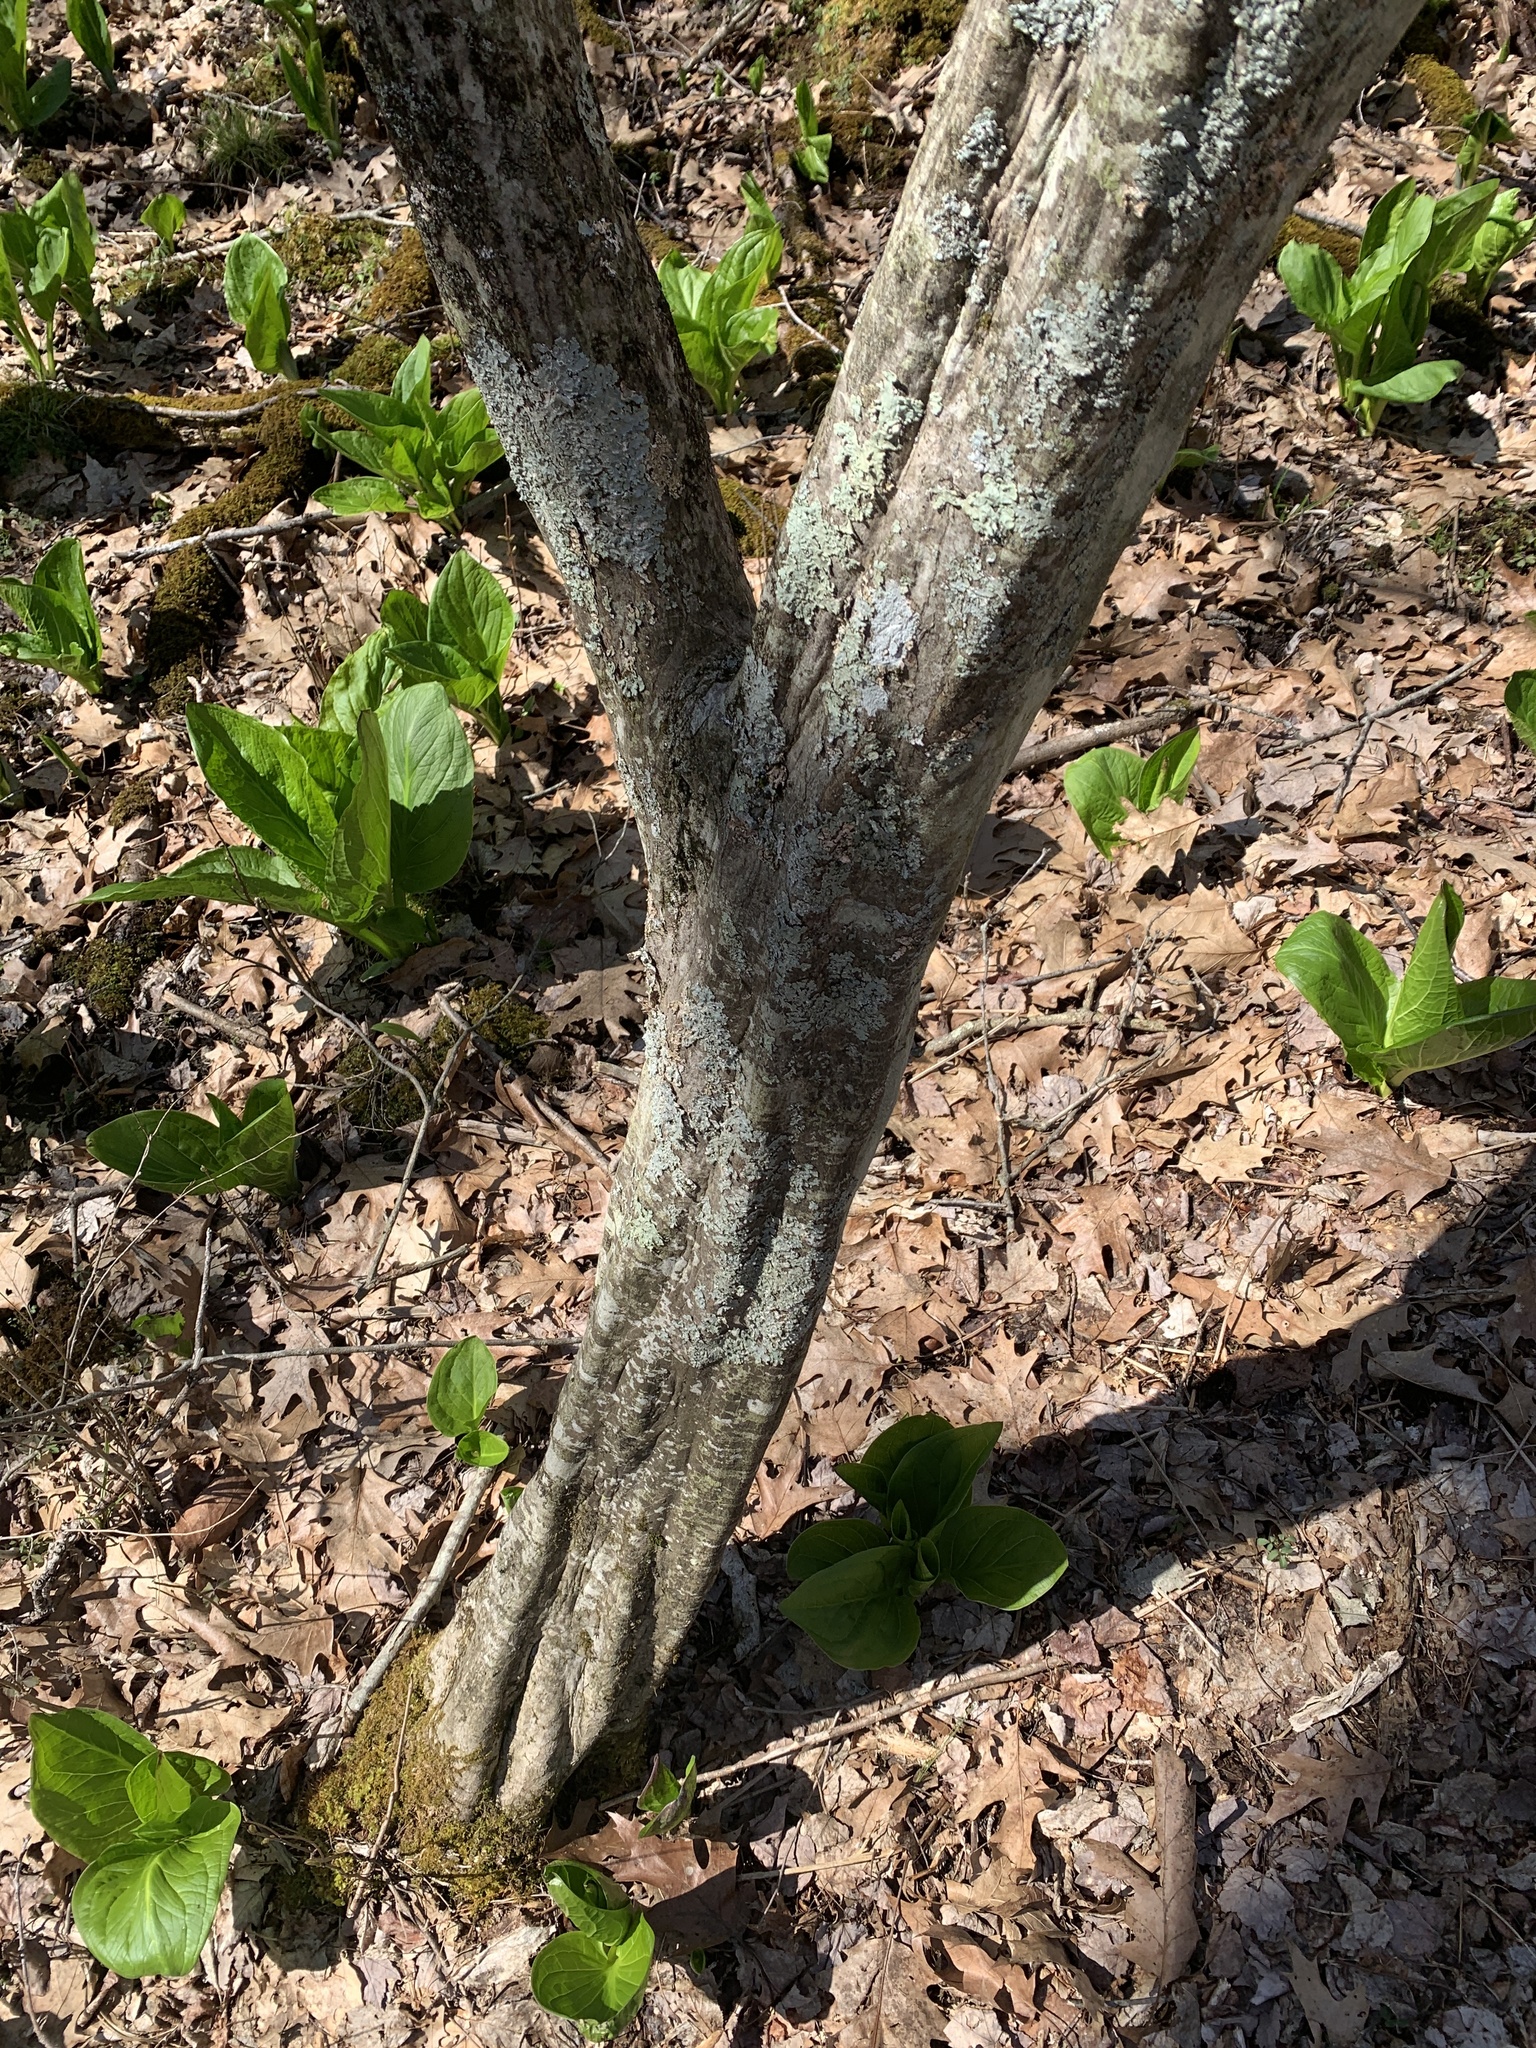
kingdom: Plantae
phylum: Tracheophyta
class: Magnoliopsida
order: Fagales
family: Betulaceae
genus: Carpinus
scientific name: Carpinus caroliniana
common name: American hornbeam
